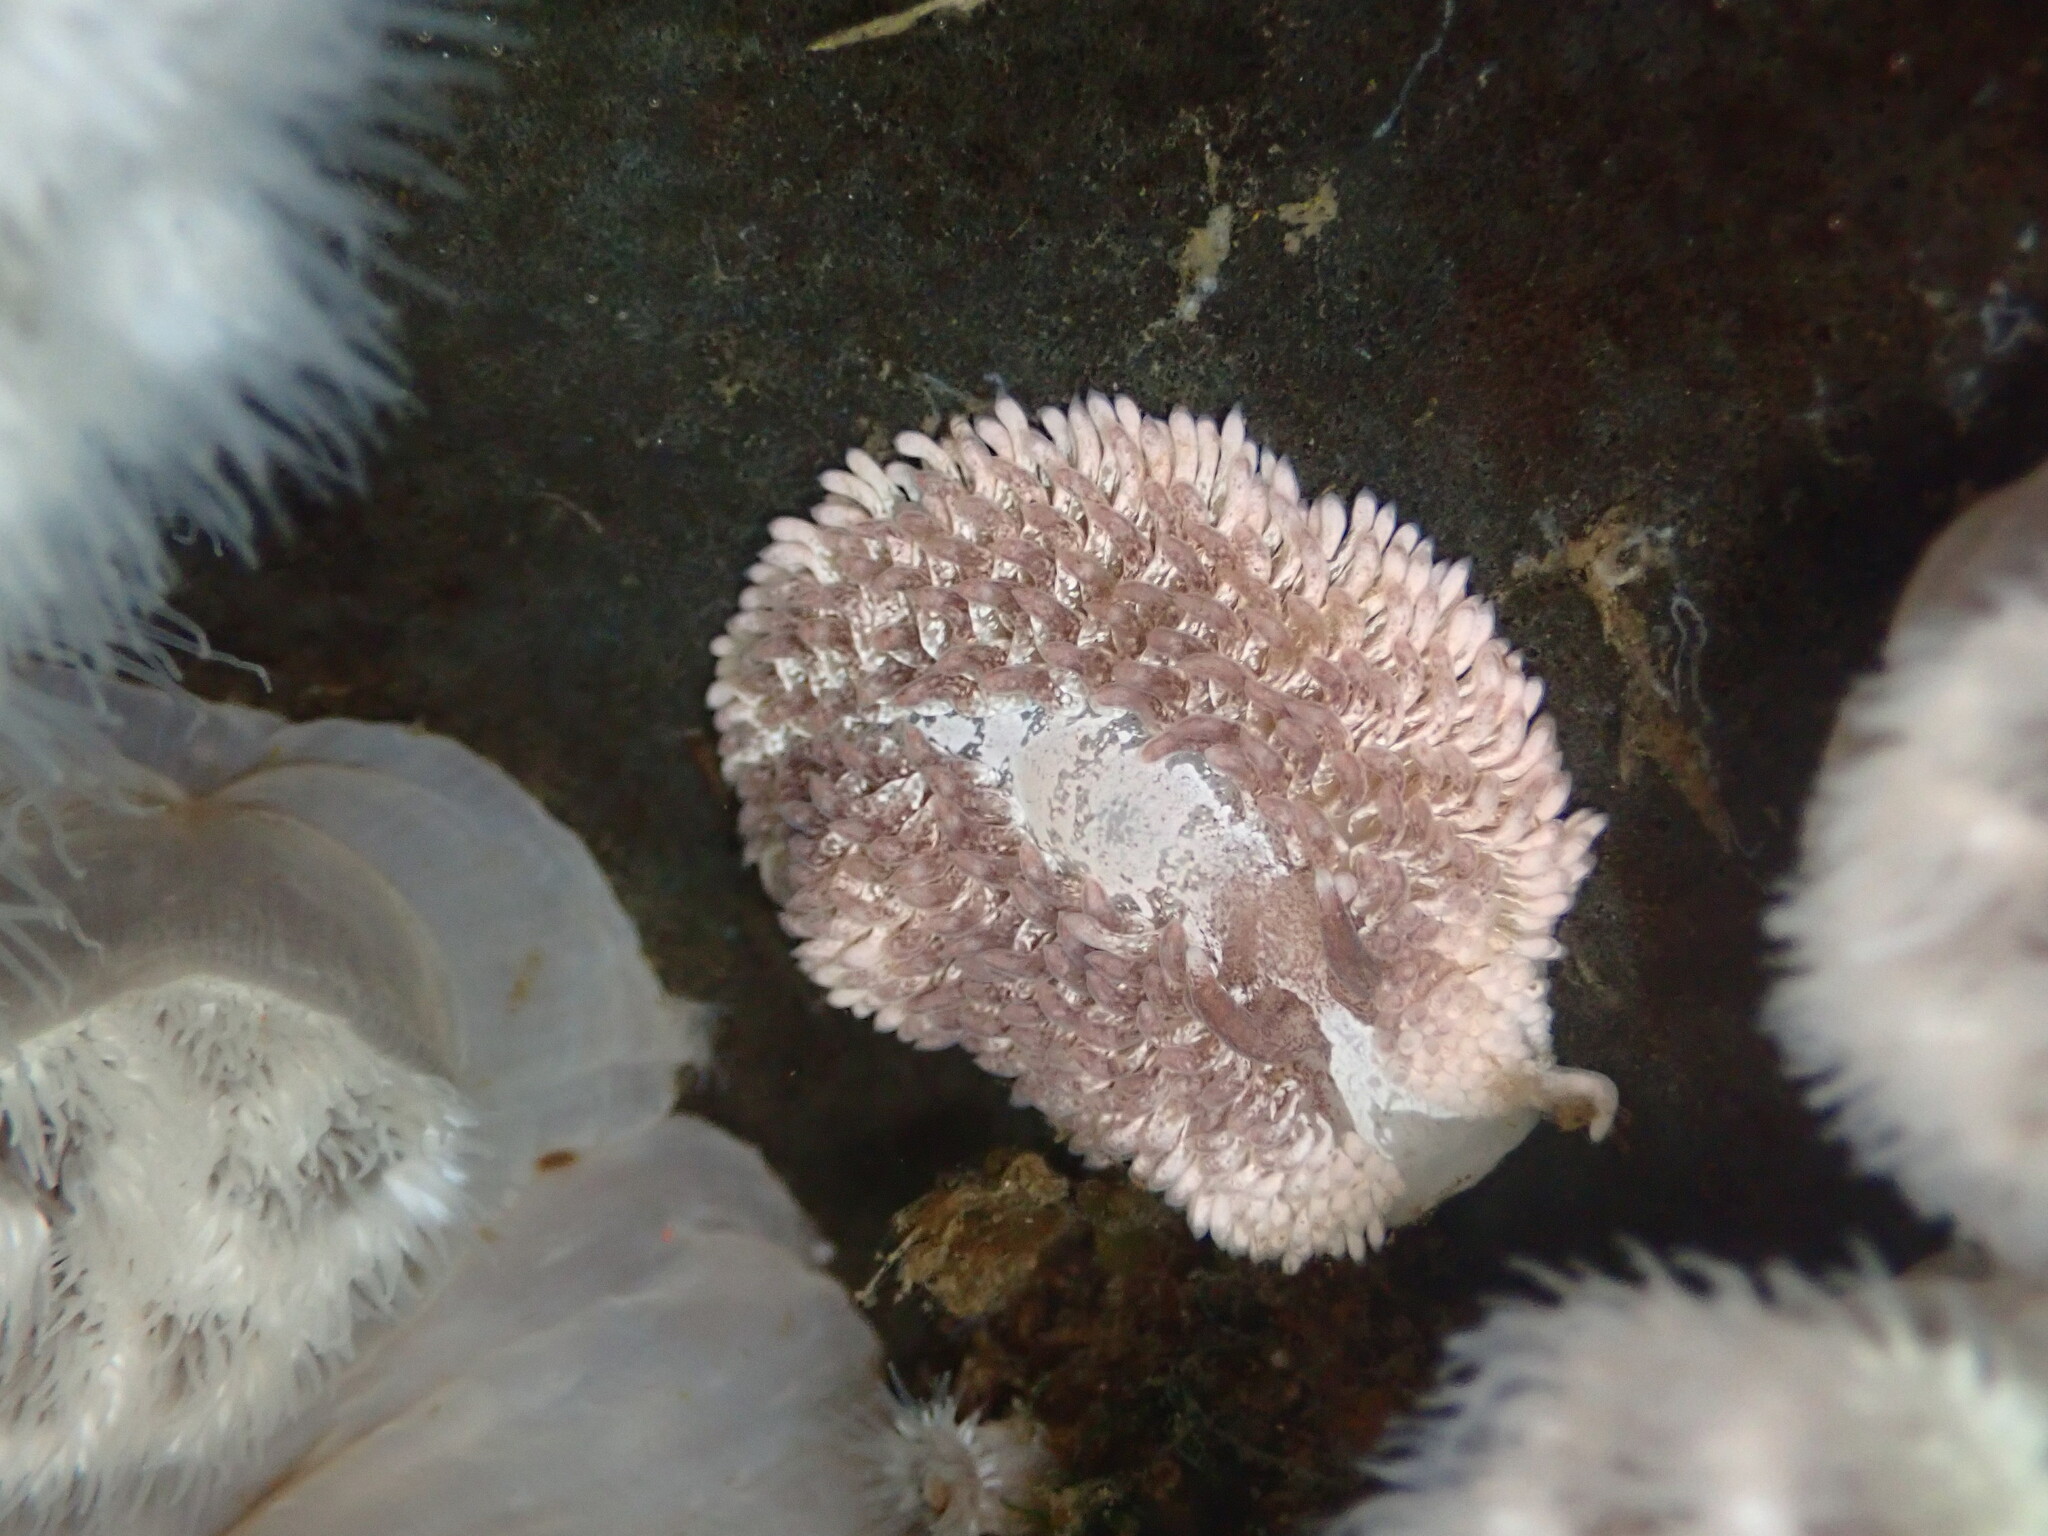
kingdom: Animalia
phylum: Mollusca
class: Gastropoda
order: Nudibranchia
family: Aeolidiidae
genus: Aeolidia
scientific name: Aeolidia papillosa
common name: Common grey sea slug
